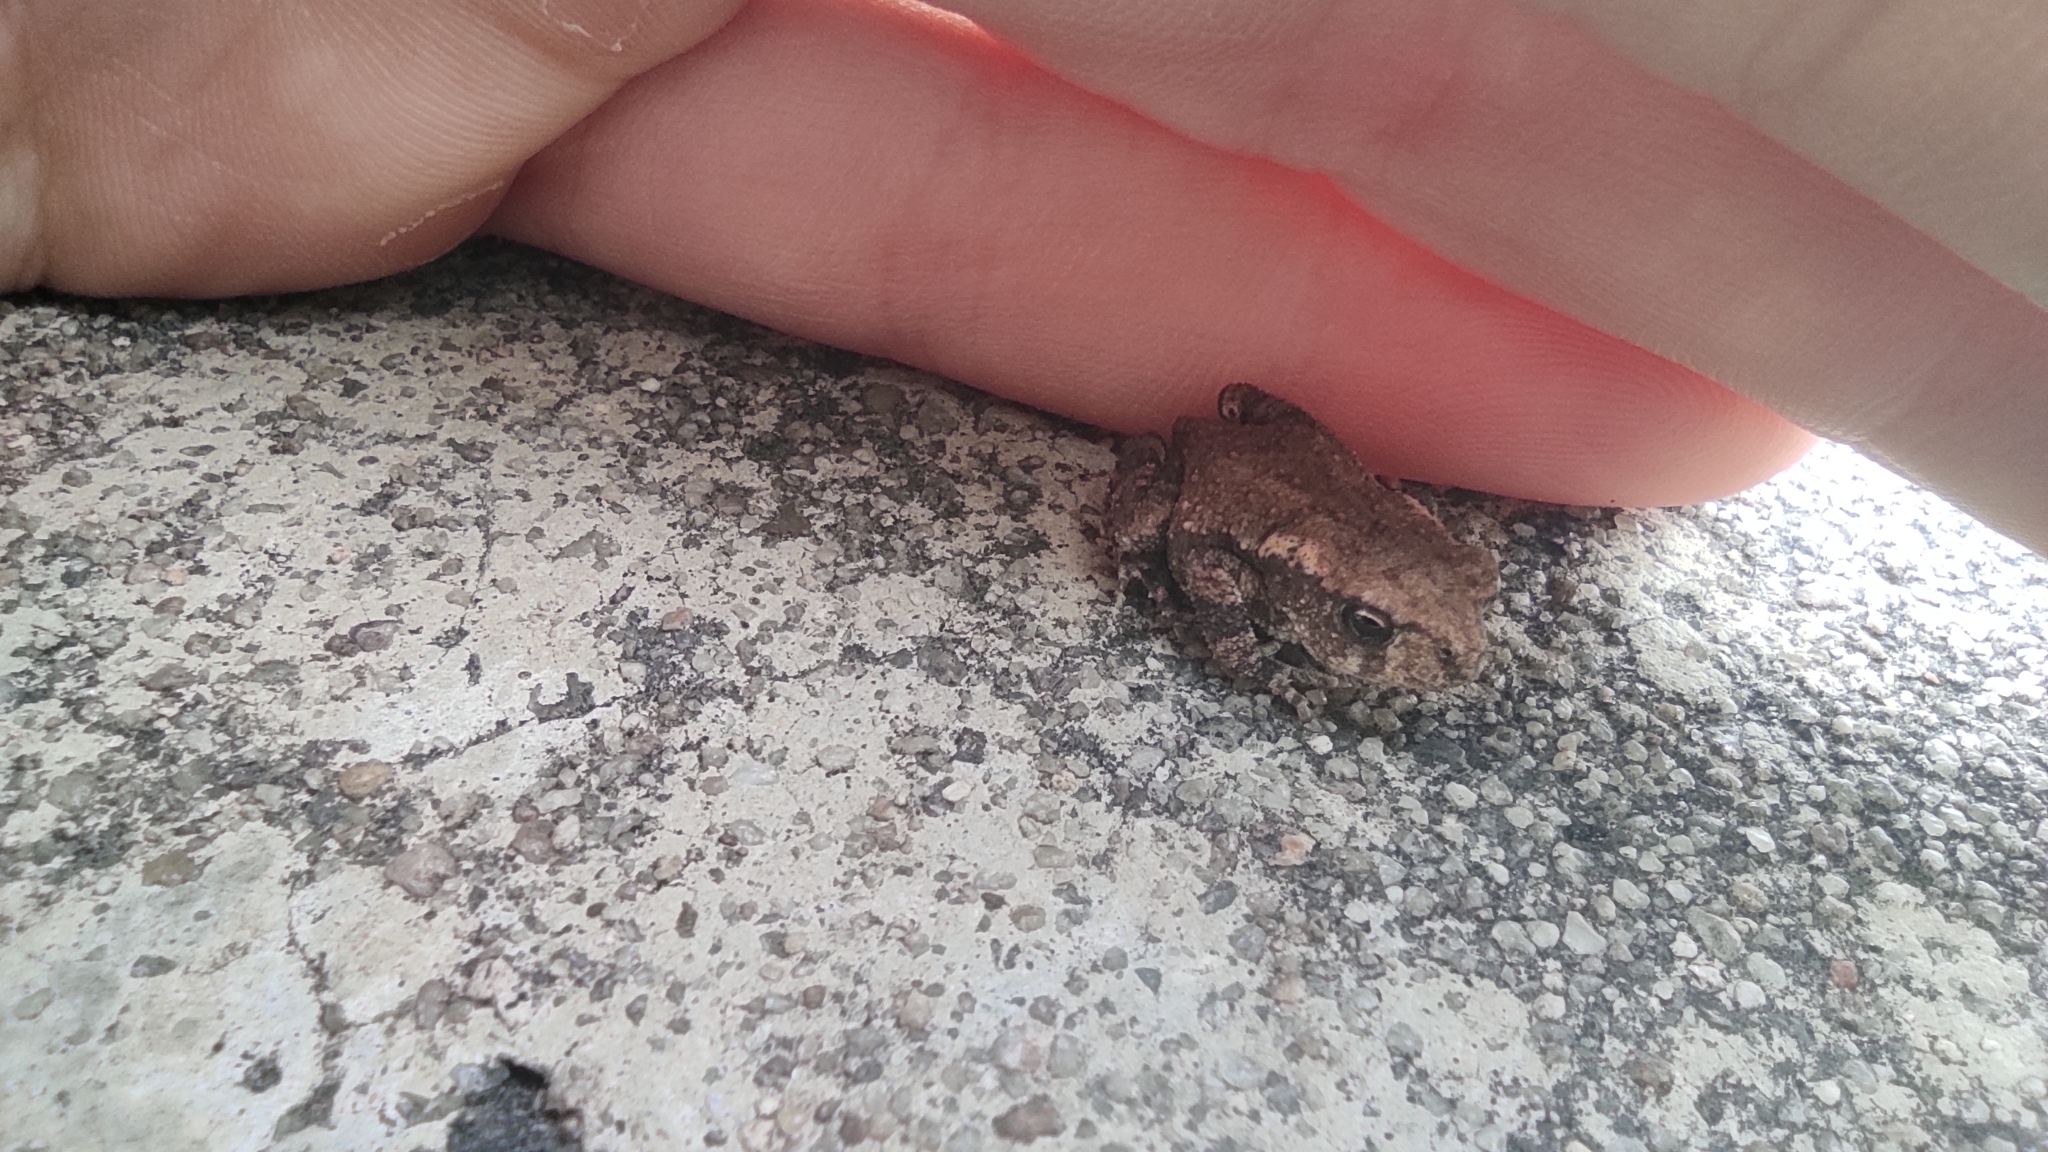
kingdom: Animalia
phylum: Chordata
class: Amphibia
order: Anura
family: Bufonidae
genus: Bufo
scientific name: Bufo spinosus
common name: Western common toad
